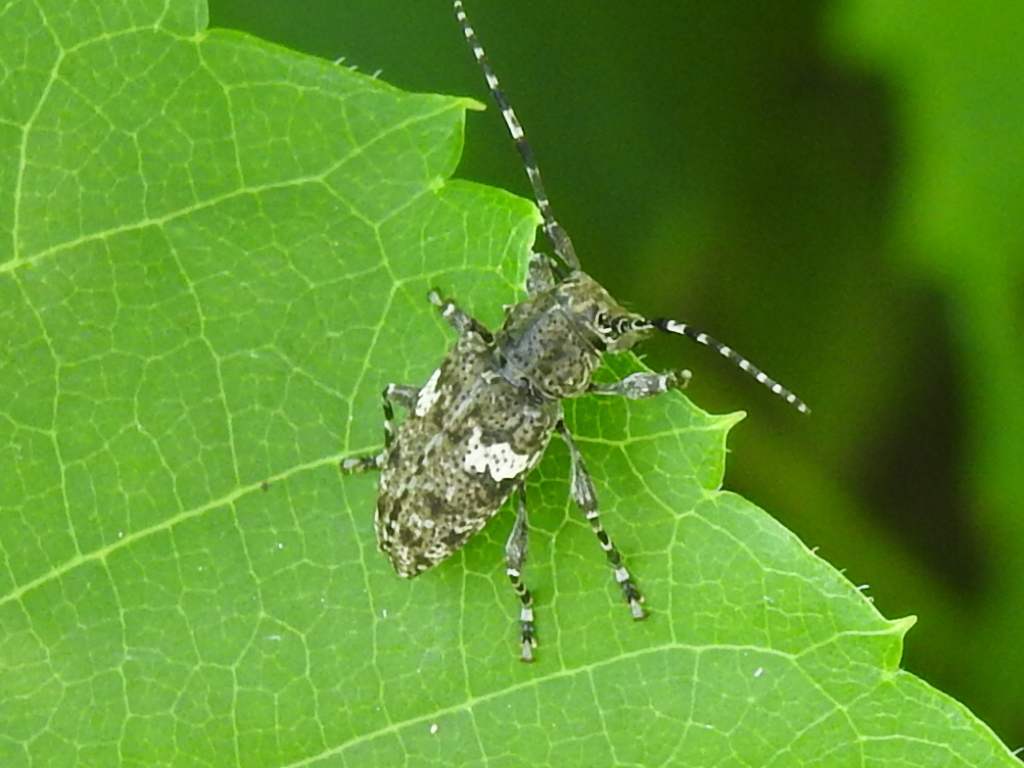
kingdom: Animalia
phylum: Arthropoda
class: Insecta
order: Coleoptera
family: Cerambycidae
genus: Acanthoderes
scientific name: Acanthoderes quadrigibba
